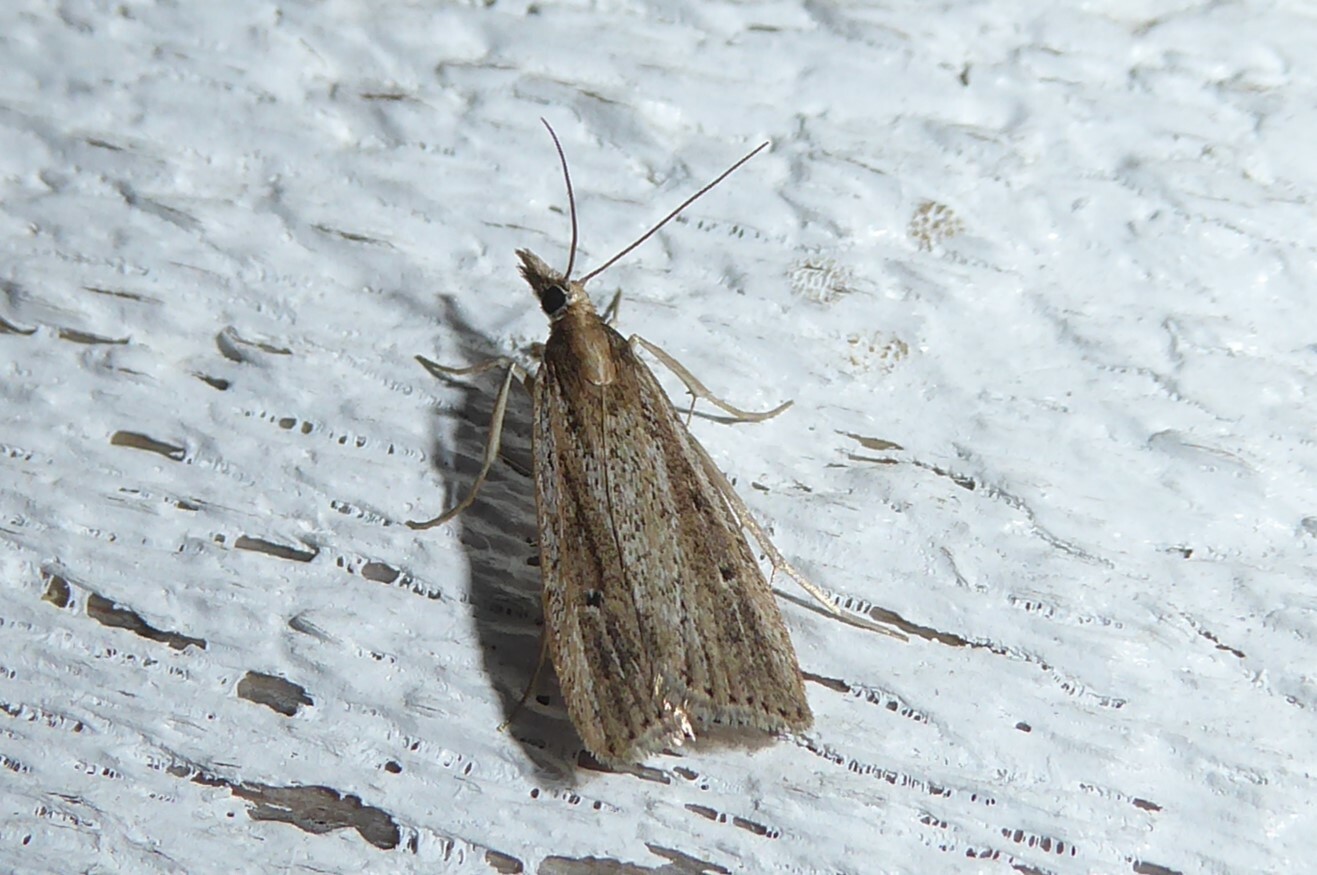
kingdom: Animalia
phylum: Arthropoda
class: Insecta
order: Lepidoptera
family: Crambidae
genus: Eudonia
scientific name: Eudonia sabulosella
